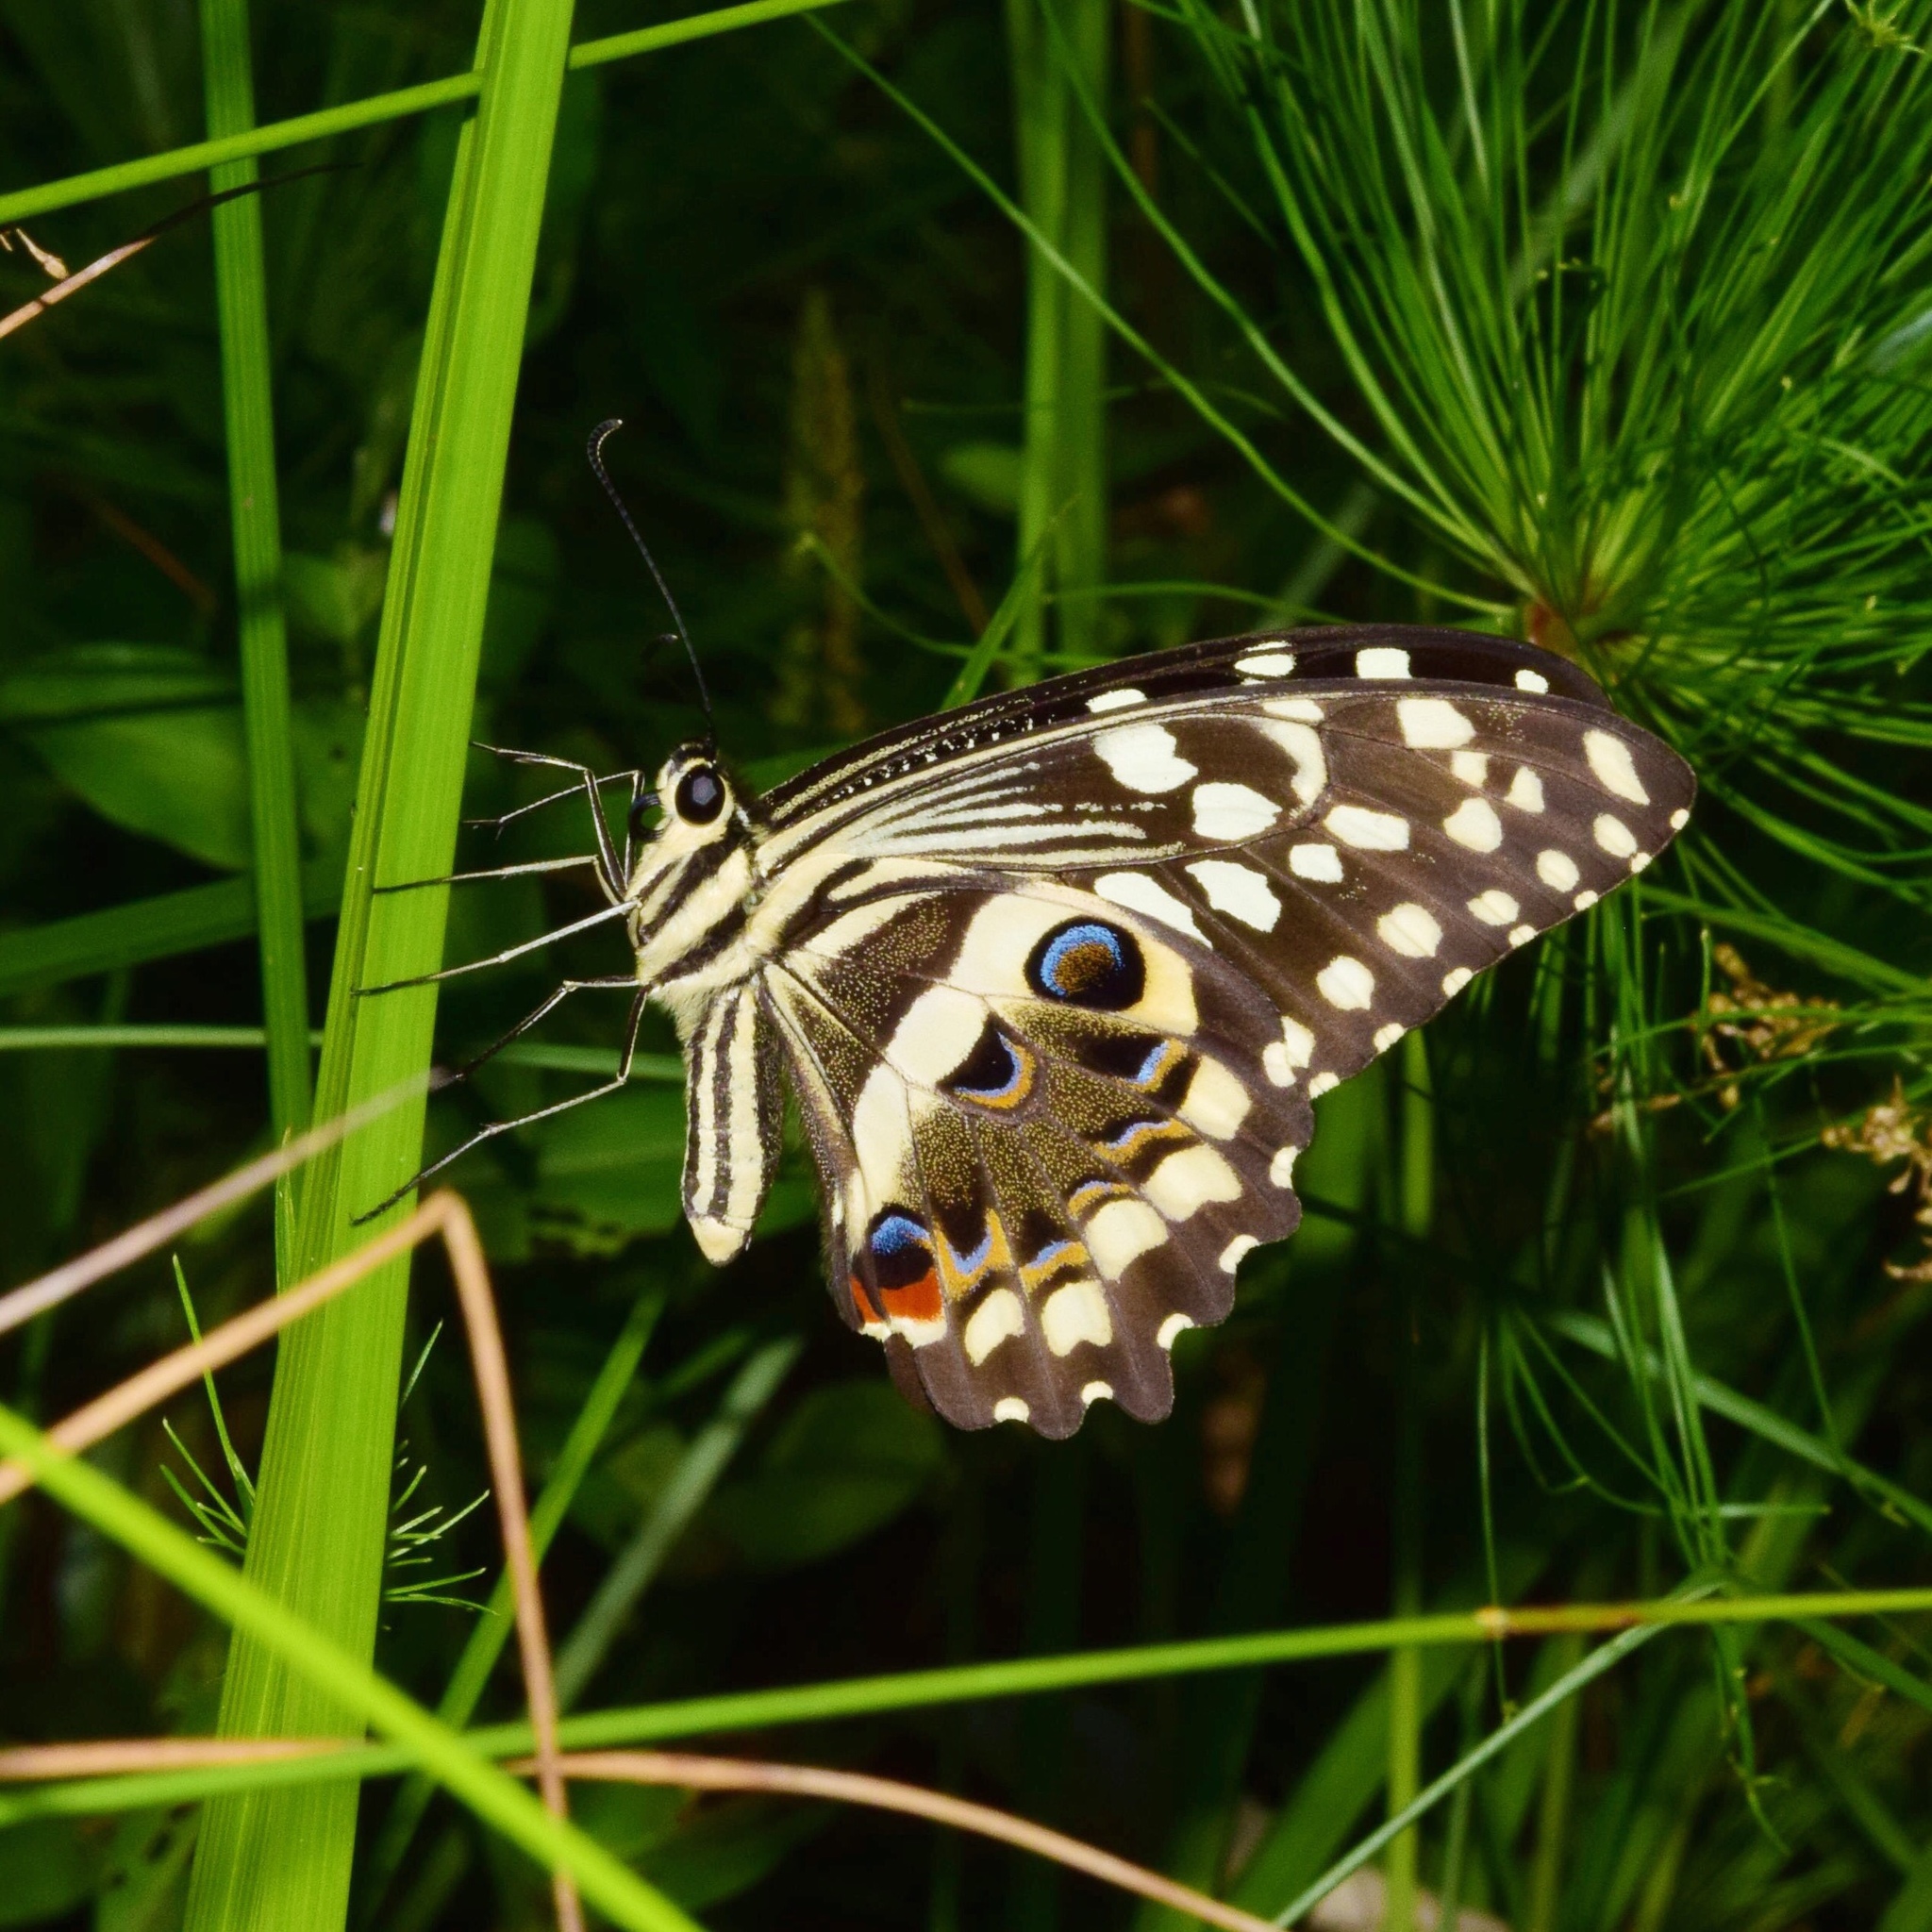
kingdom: Animalia
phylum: Arthropoda
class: Insecta
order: Lepidoptera
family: Papilionidae
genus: Papilio
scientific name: Papilio demodocus
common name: Christmas butterfly
